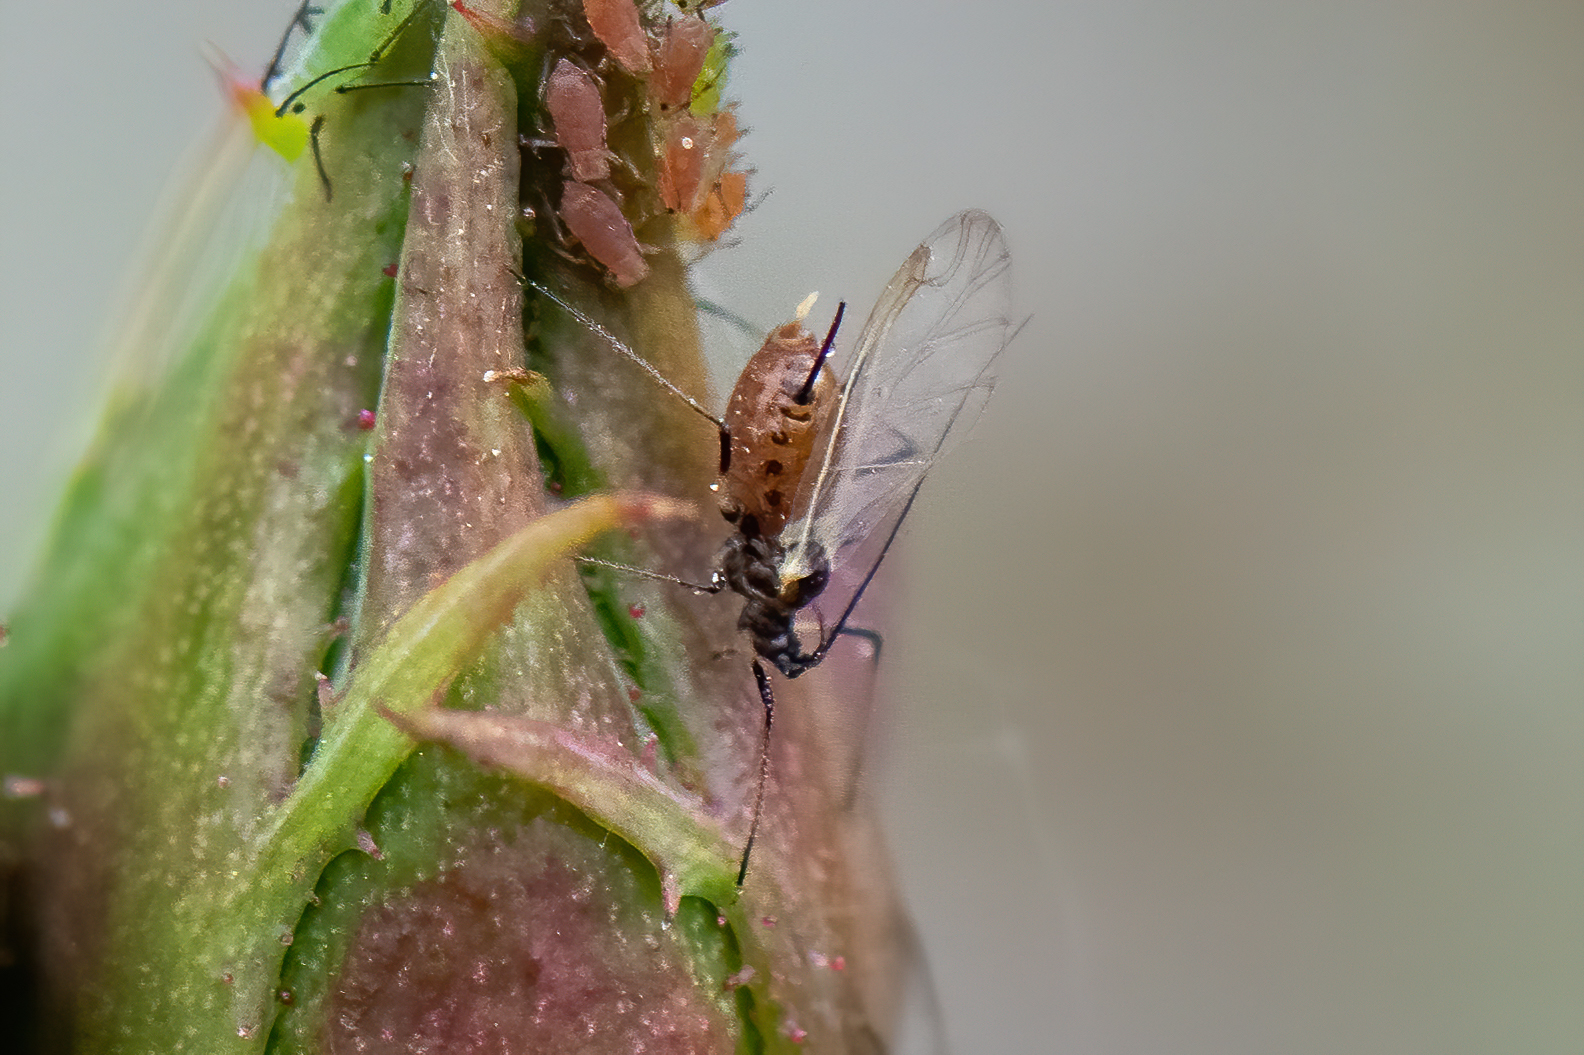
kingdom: Animalia
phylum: Arthropoda
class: Insecta
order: Hemiptera
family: Aphididae
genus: Macrosiphum
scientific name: Macrosiphum rosae
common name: Rose aphid
